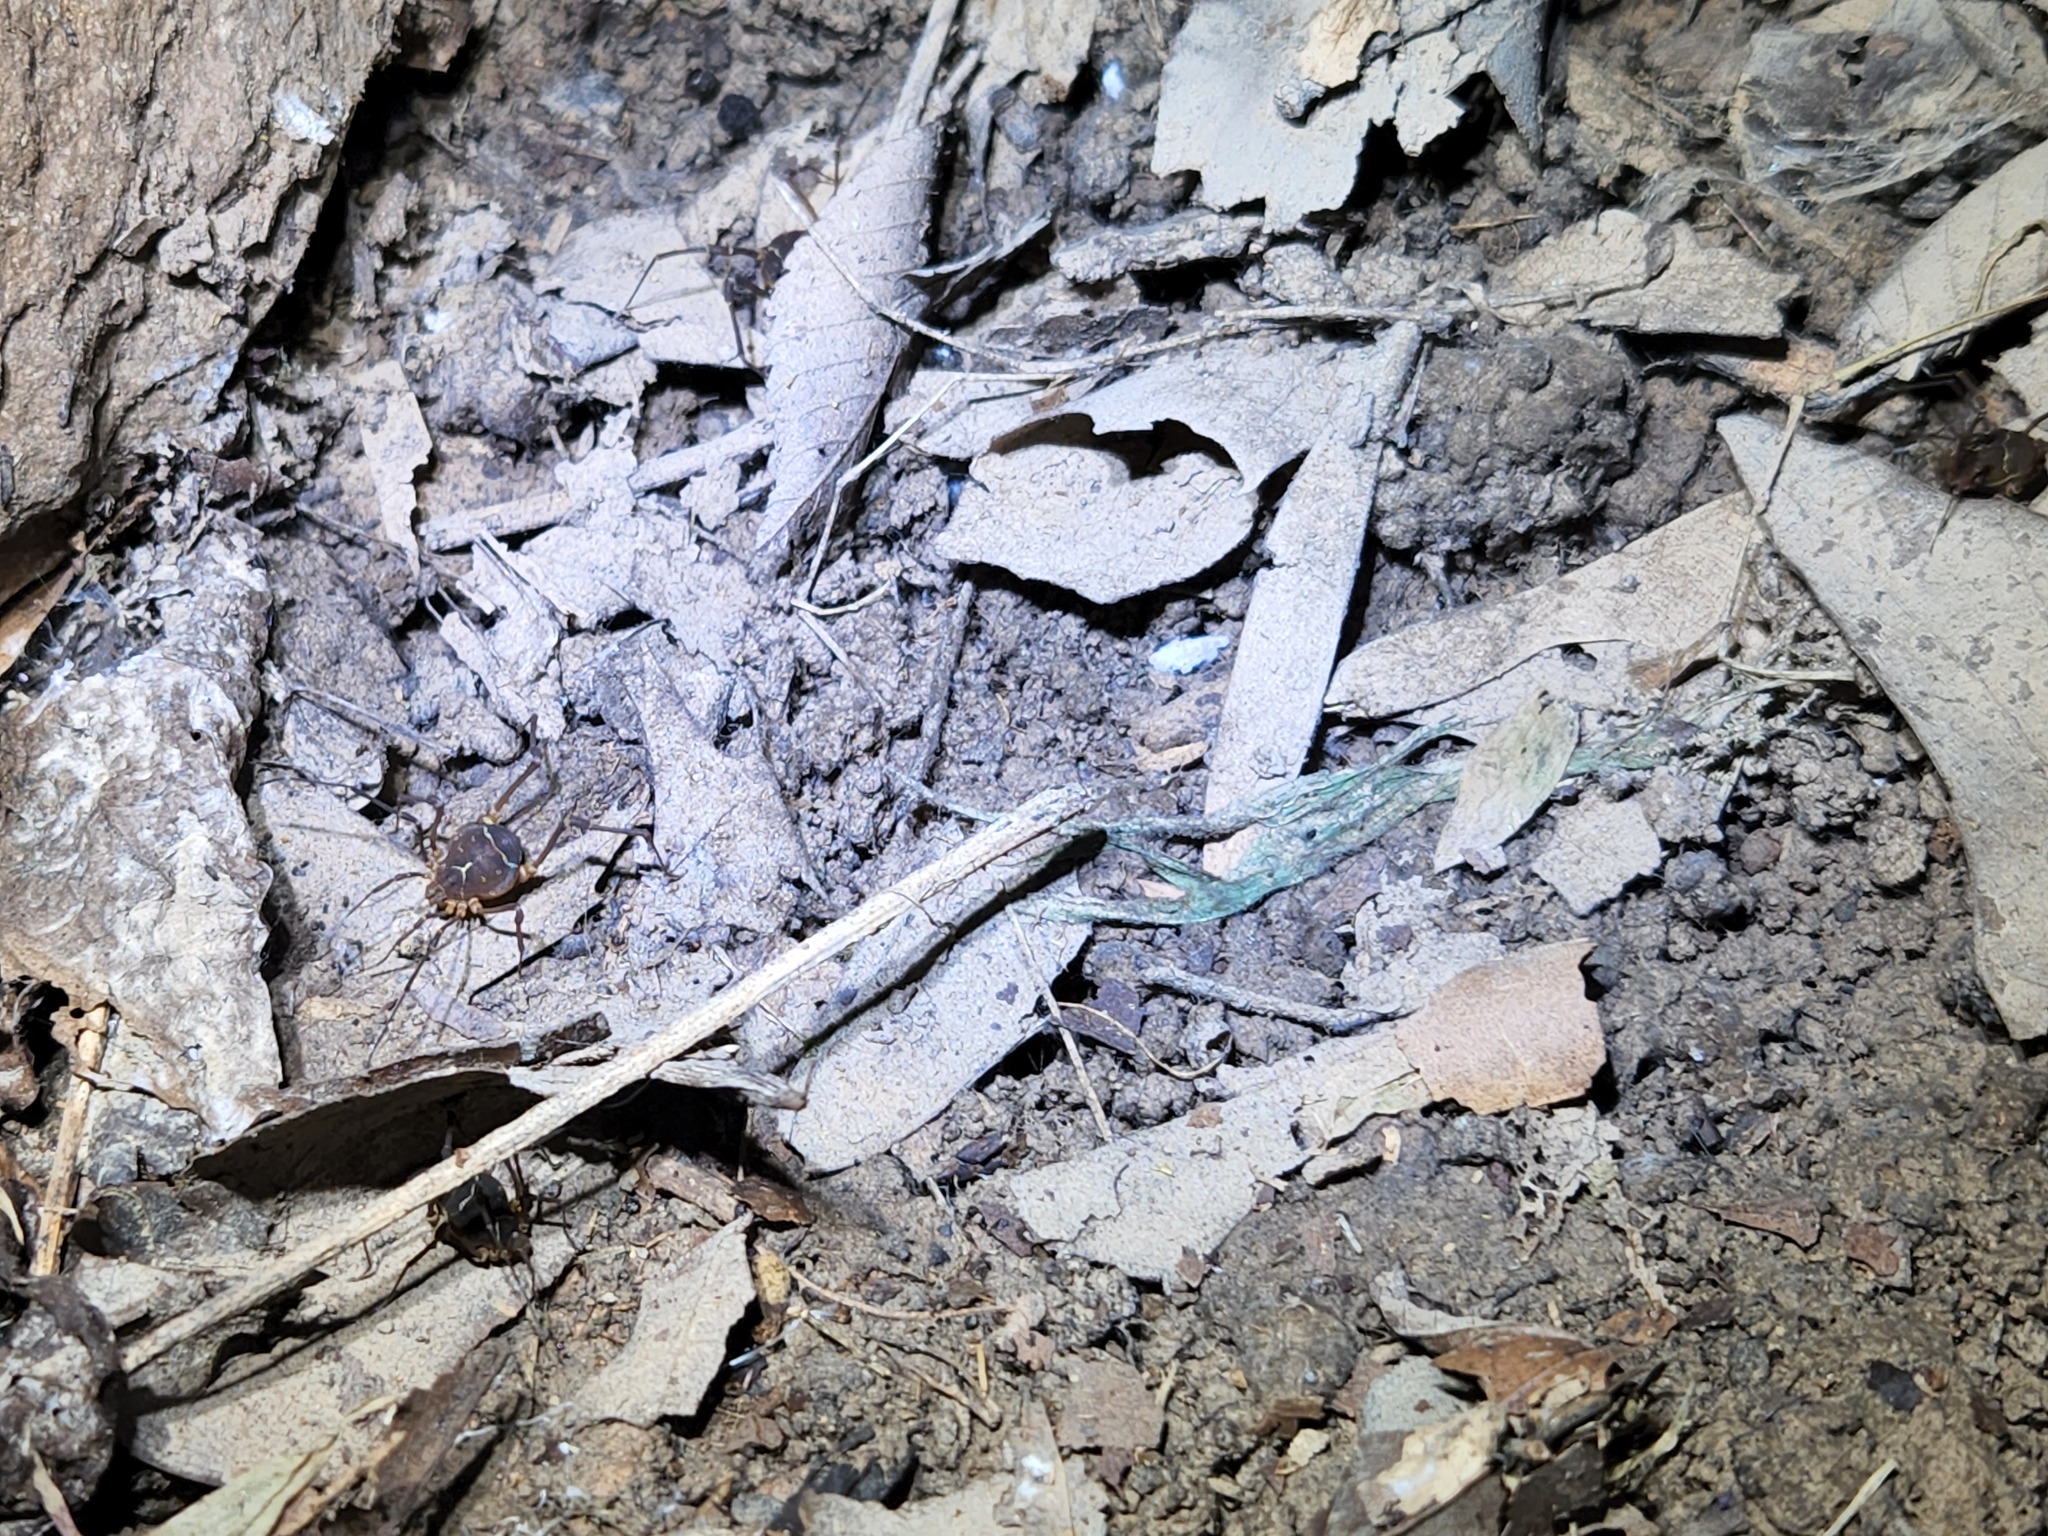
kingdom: Animalia
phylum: Arthropoda
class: Arachnida
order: Opiliones
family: Cosmetidae
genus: Libitioides
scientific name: Libitioides sayi
